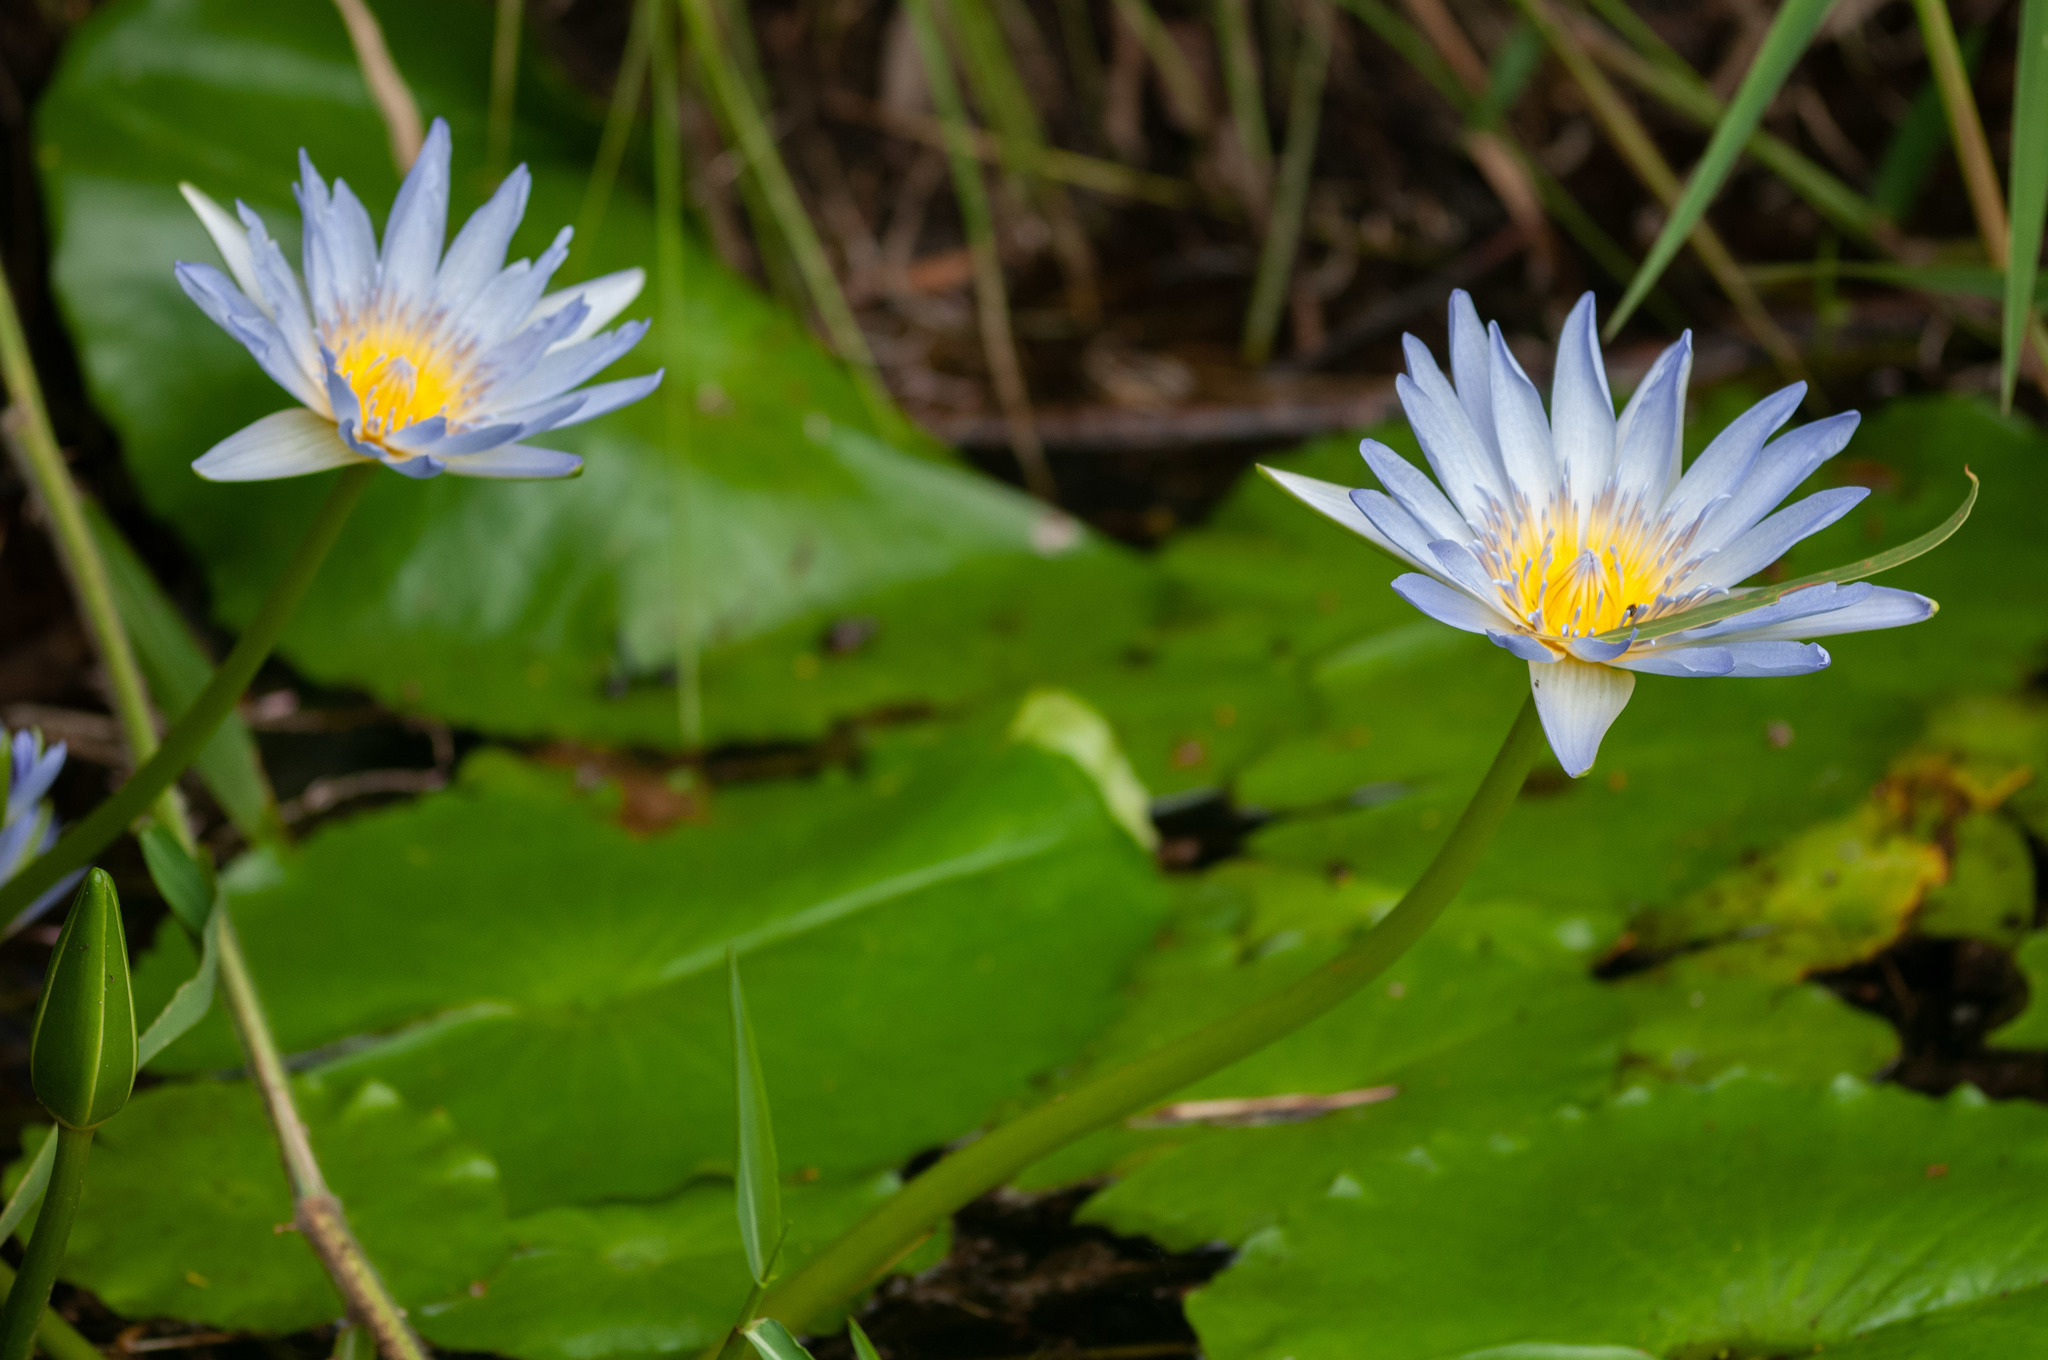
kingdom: Plantae
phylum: Tracheophyta
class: Magnoliopsida
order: Nymphaeales
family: Nymphaeaceae
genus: Nymphaea
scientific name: Nymphaea nouchali
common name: Blue lotus
